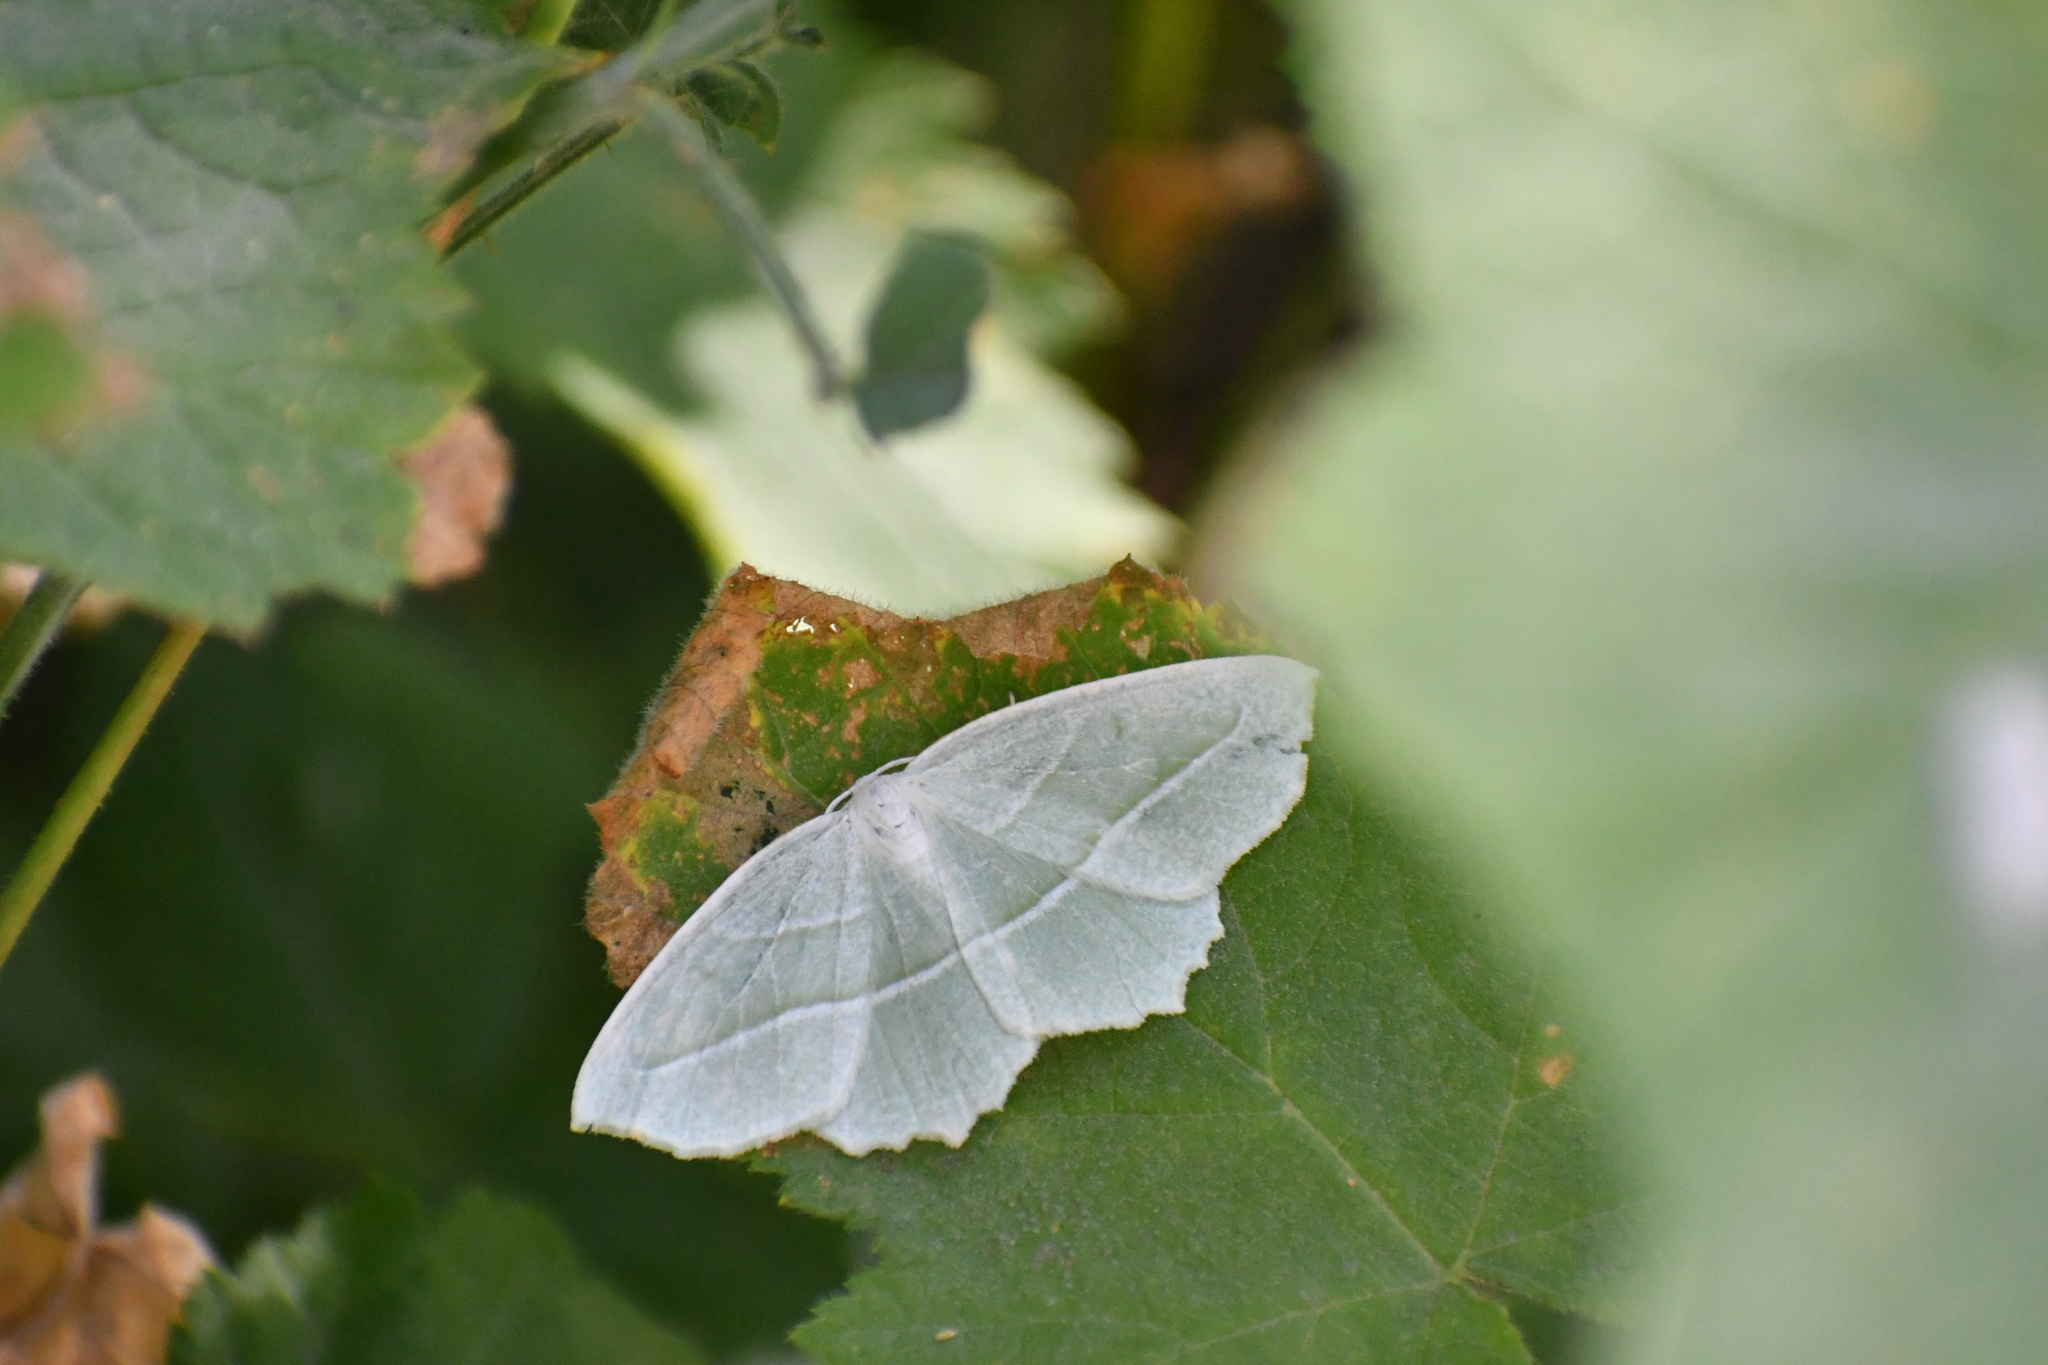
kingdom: Animalia
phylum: Arthropoda
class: Insecta
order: Lepidoptera
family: Geometridae
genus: Campaea
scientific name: Campaea perlata
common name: Fringed looper
